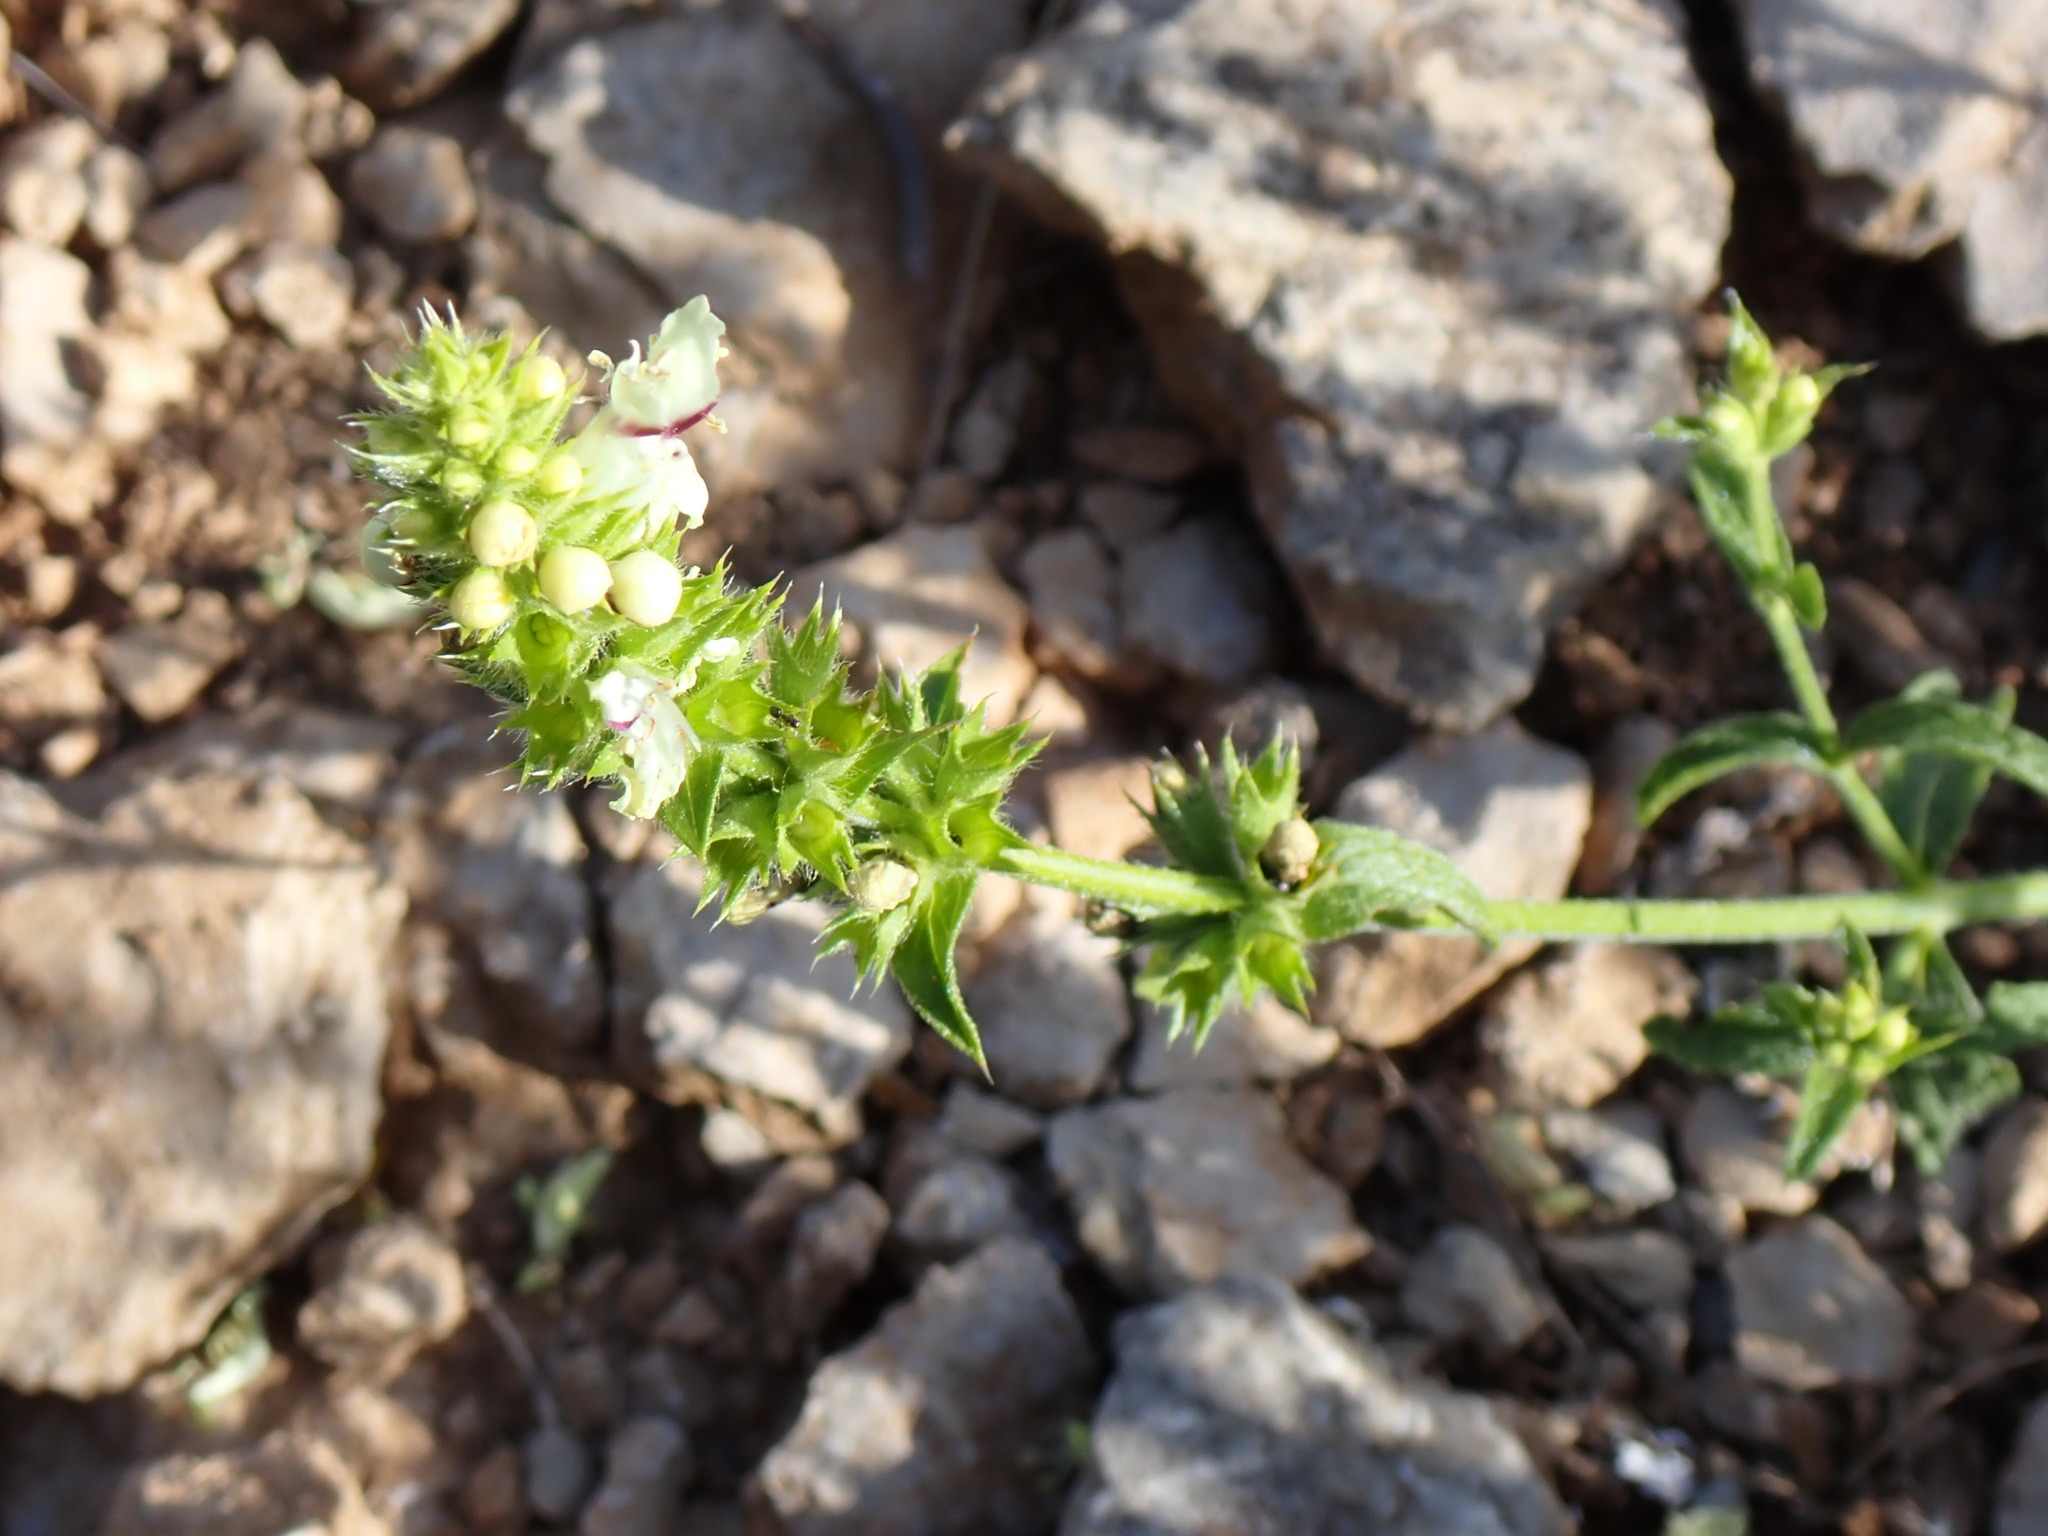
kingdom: Plantae
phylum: Tracheophyta
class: Magnoliopsida
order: Lamiales
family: Lamiaceae
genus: Stachys
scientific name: Stachys recta
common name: Perennial yellow-woundwort
